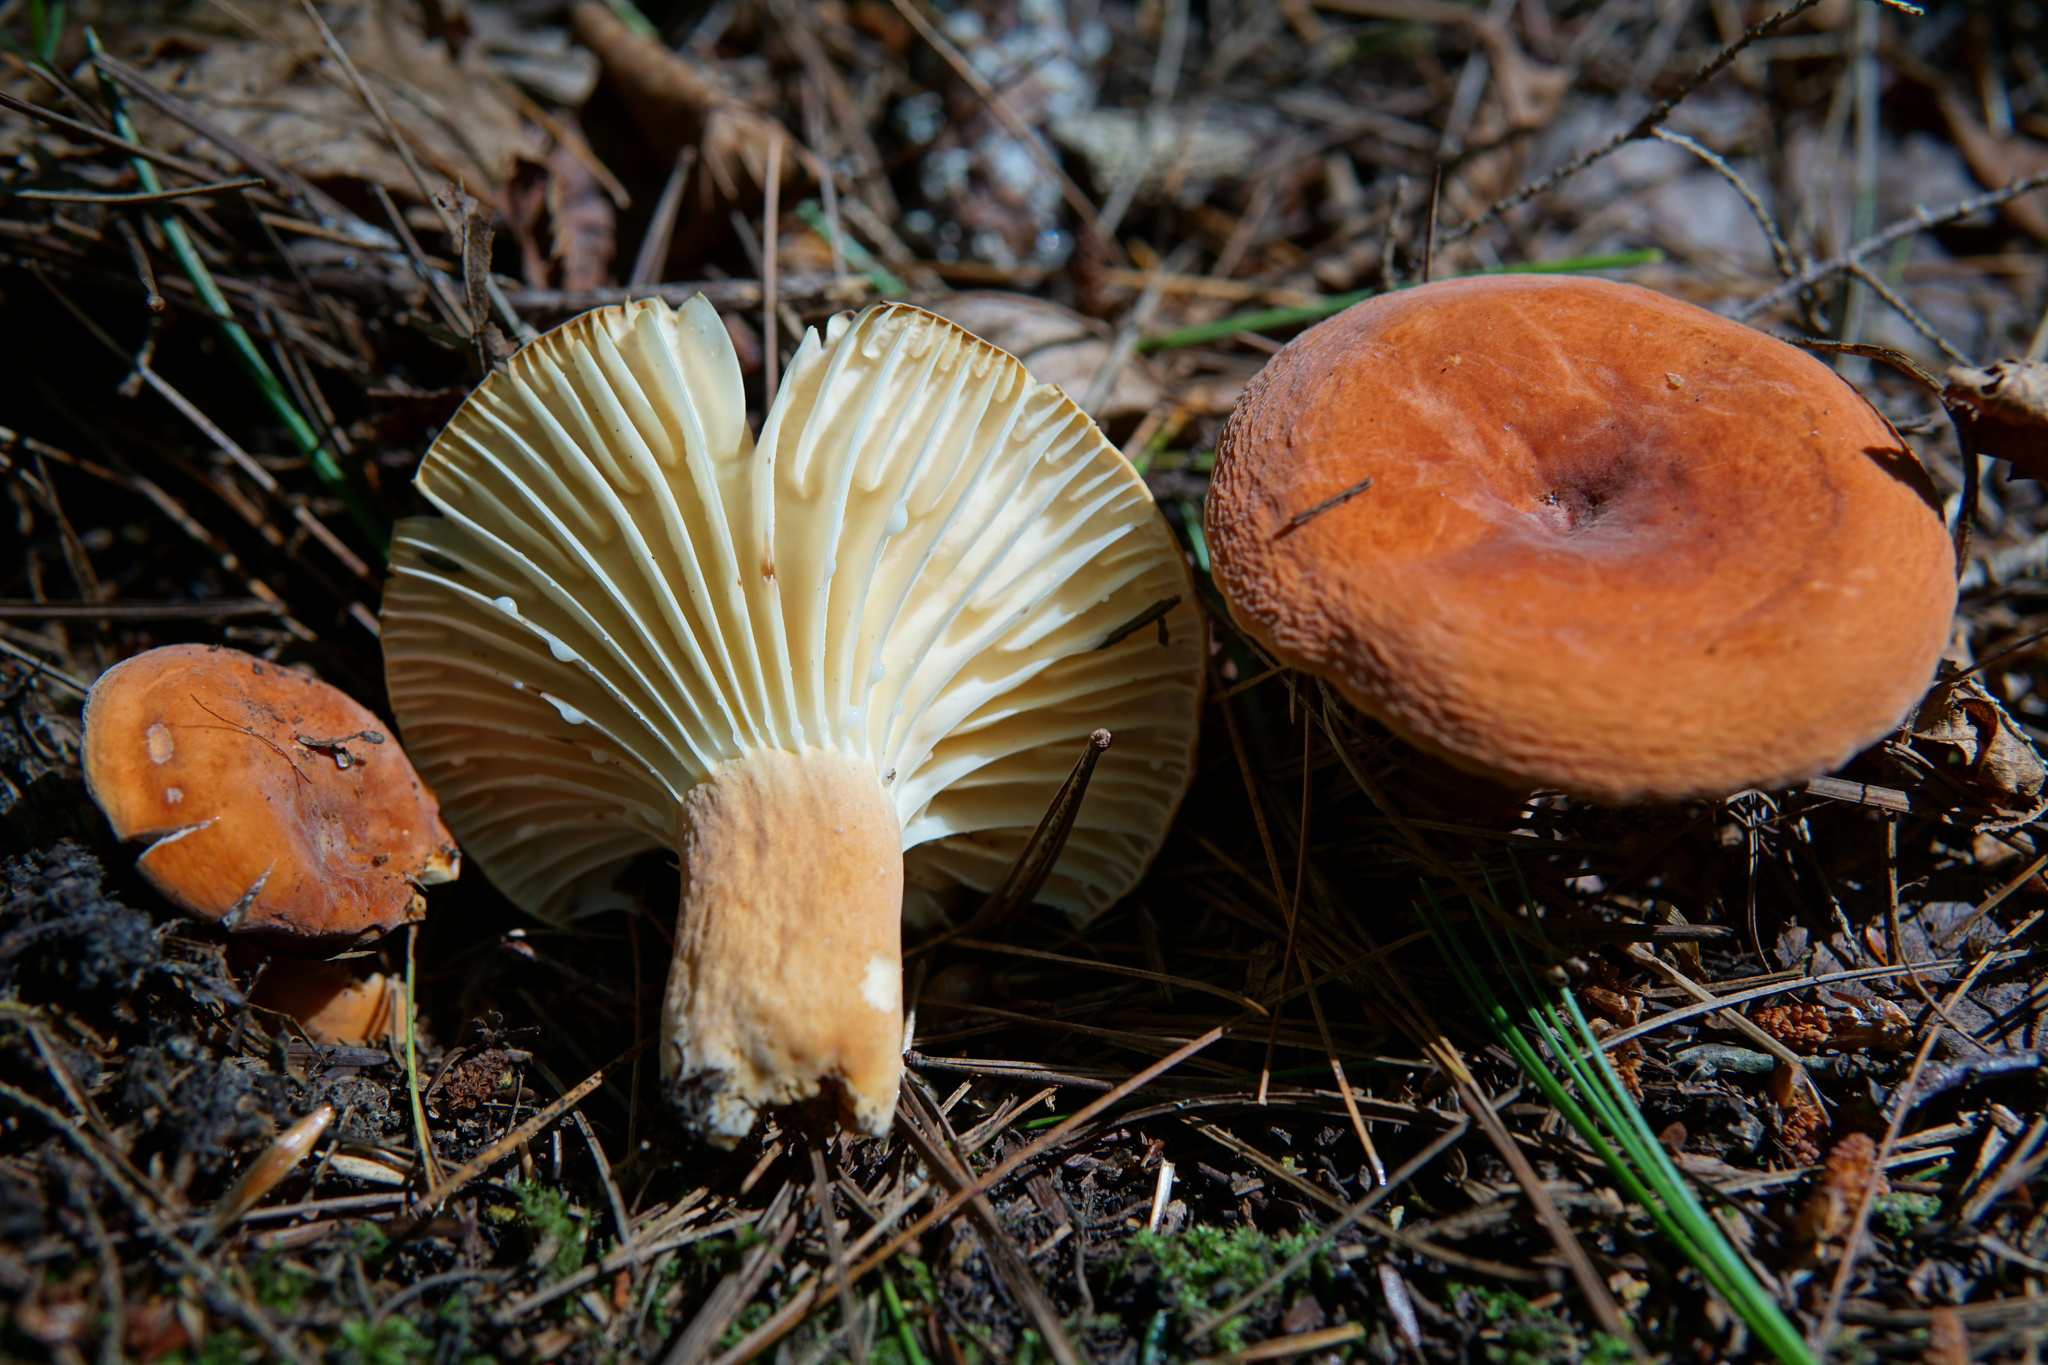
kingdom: Fungi
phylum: Basidiomycota
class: Agaricomycetes
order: Russulales
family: Russulaceae
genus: Lactarius
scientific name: Lactarius hygrophoroides
